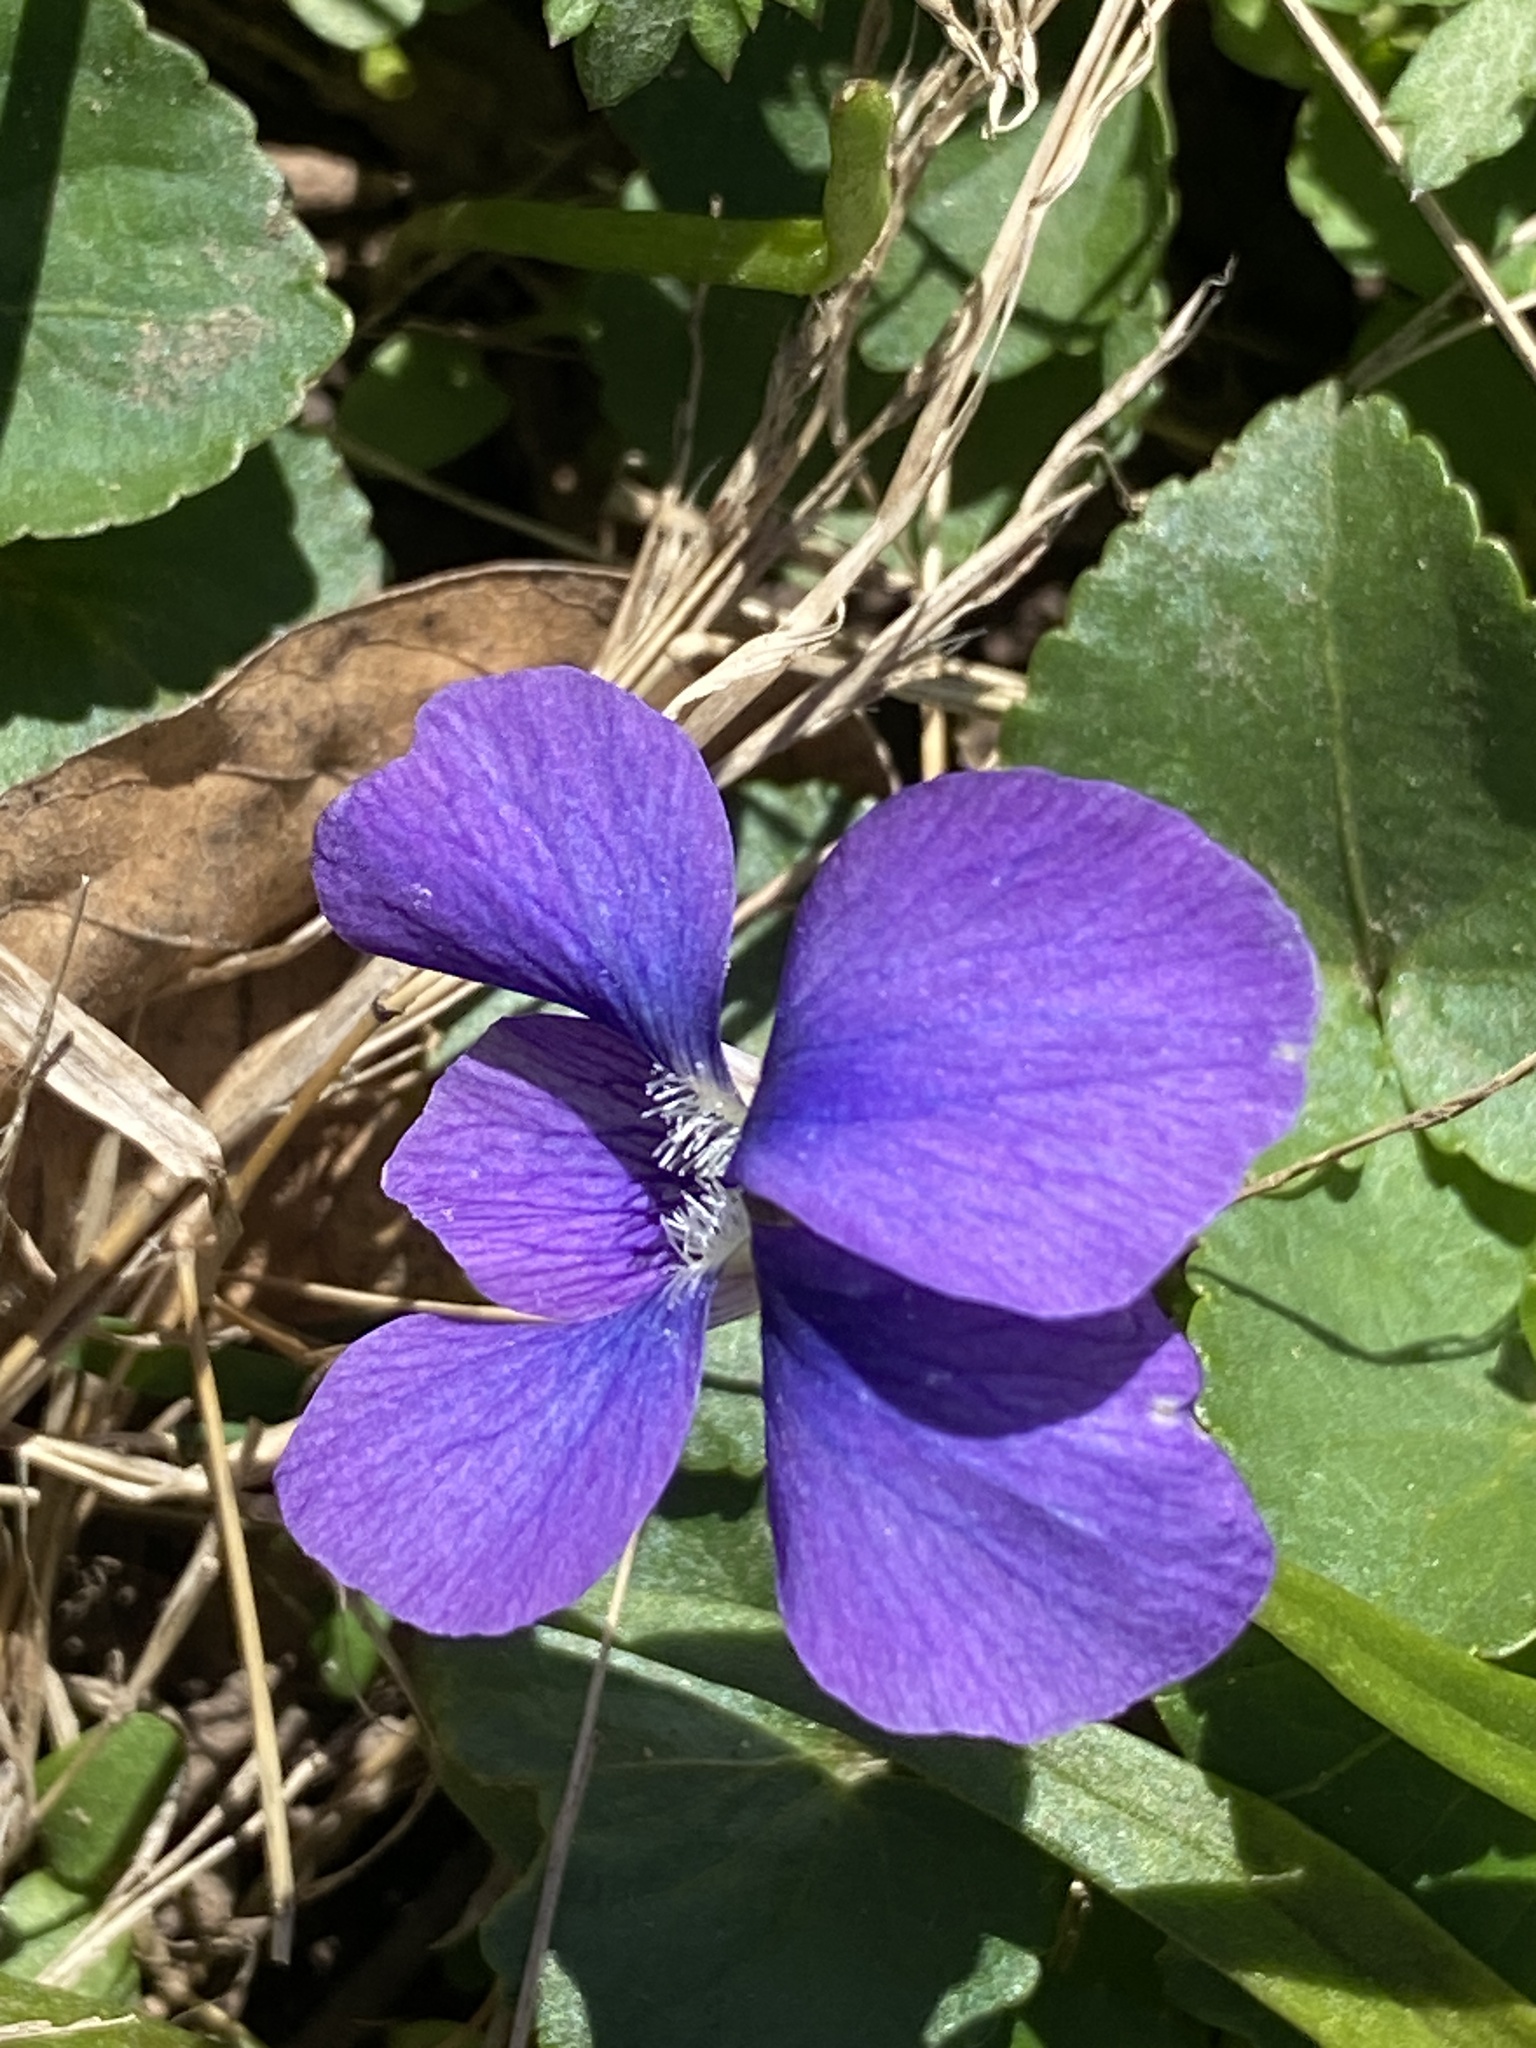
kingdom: Plantae
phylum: Tracheophyta
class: Magnoliopsida
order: Malpighiales
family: Violaceae
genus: Viola
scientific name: Viola sororia
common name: Dooryard violet
